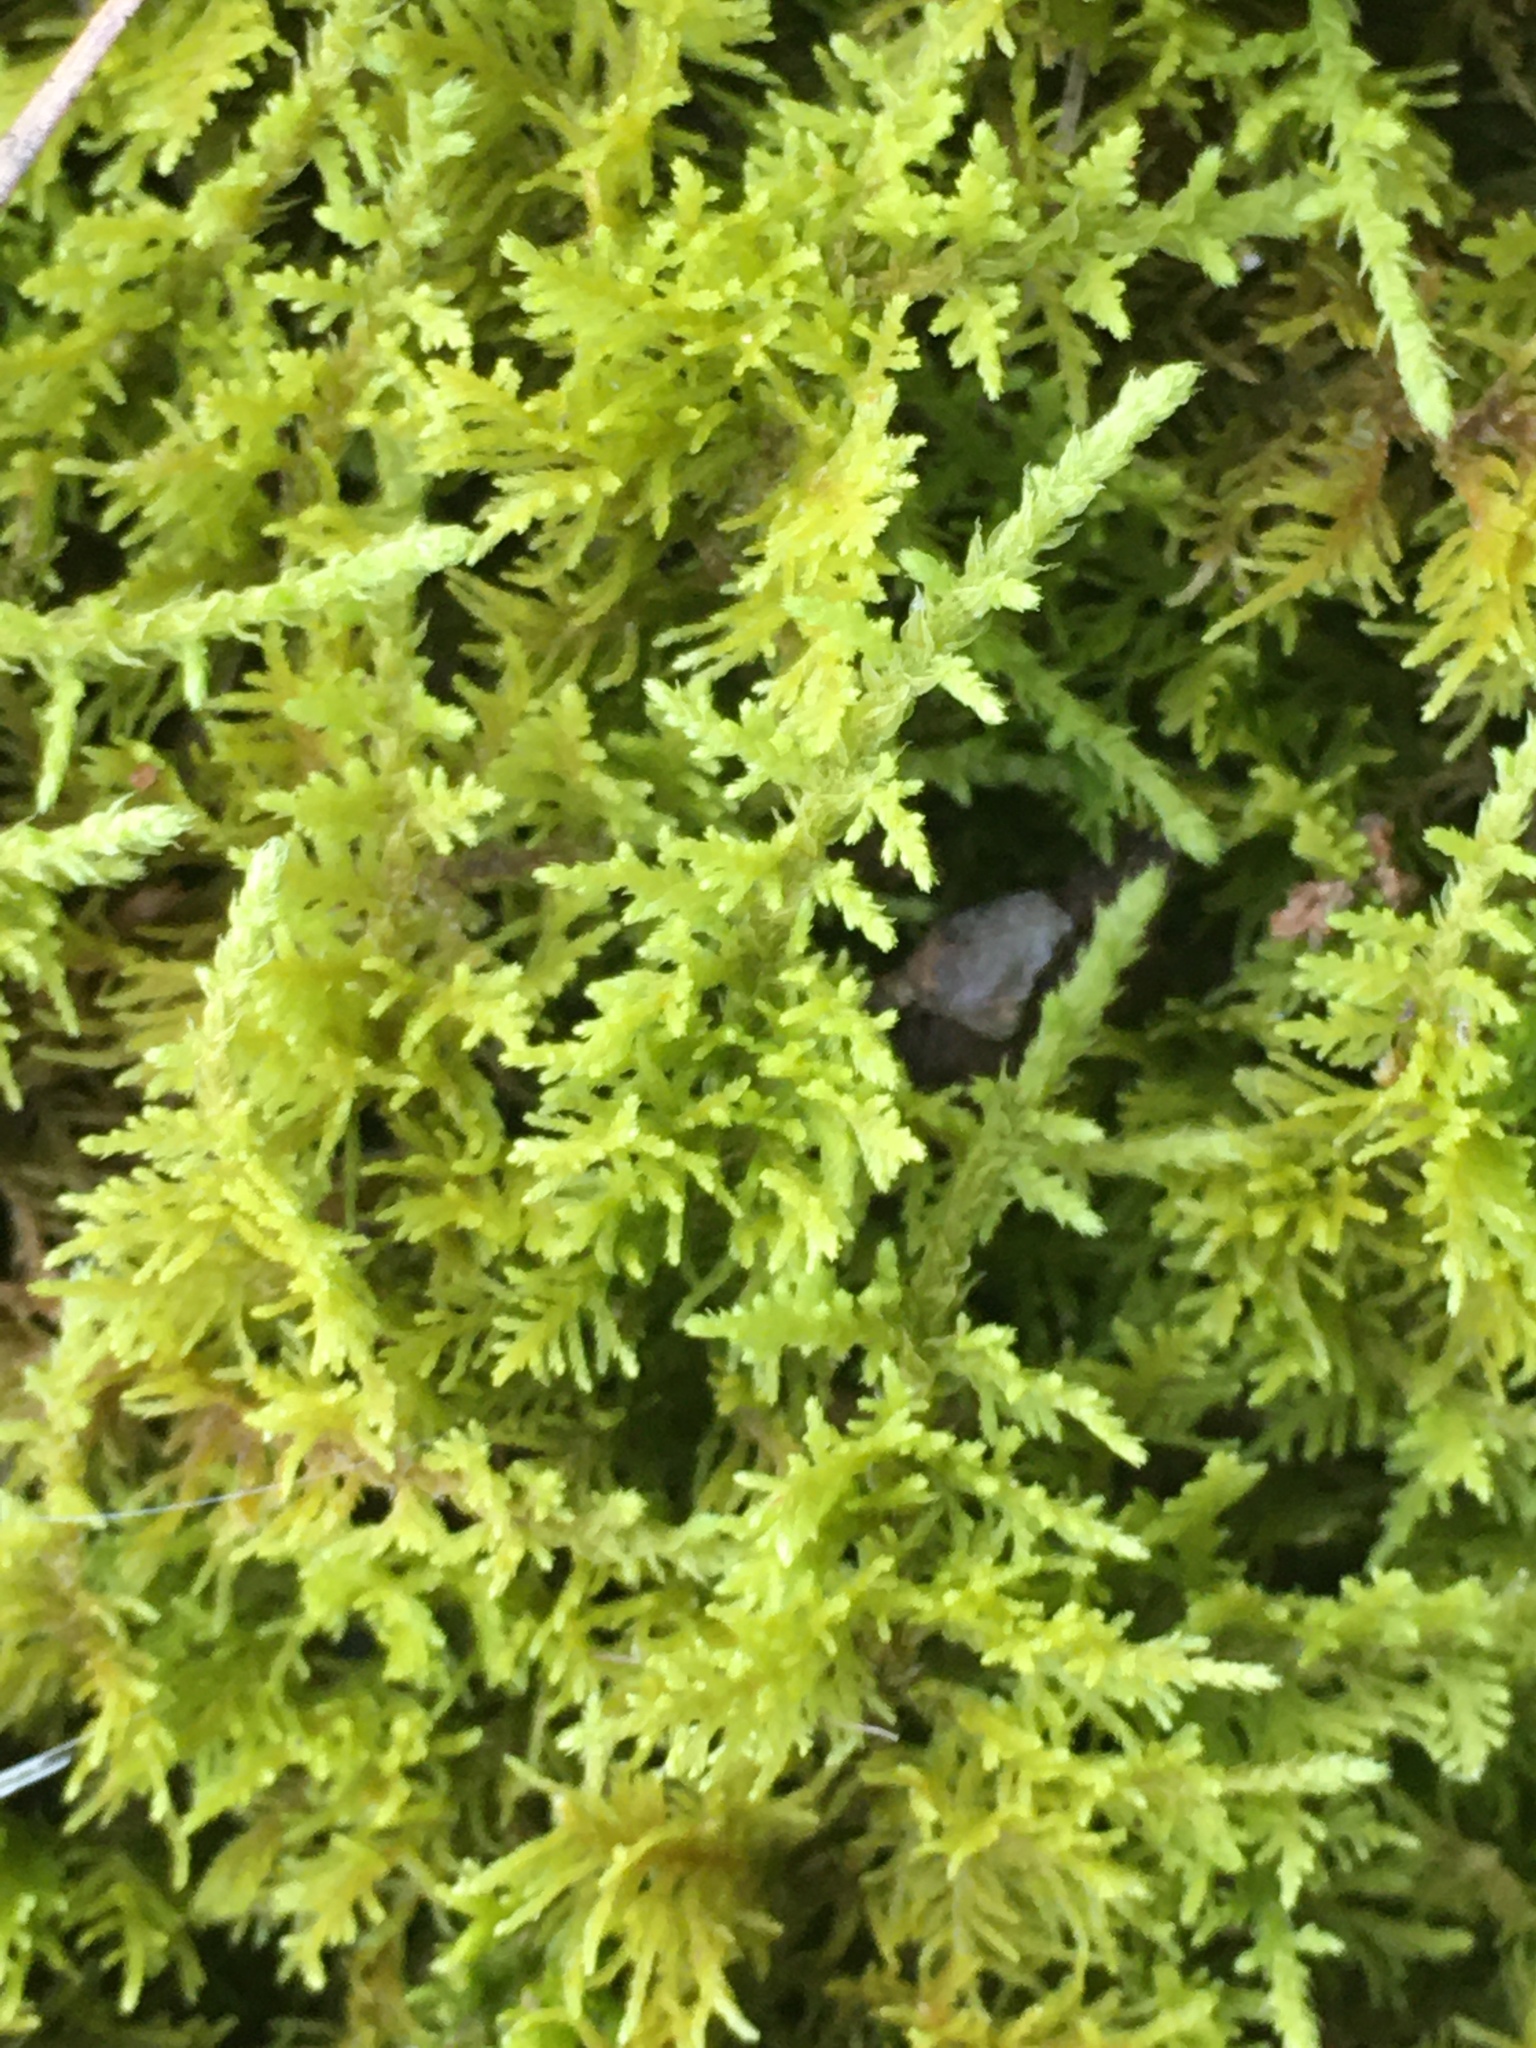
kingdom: Plantae
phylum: Bryophyta
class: Bryopsida
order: Hypnales
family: Thuidiaceae
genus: Thuidium
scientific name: Thuidium delicatulum
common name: Delicate fern moss
